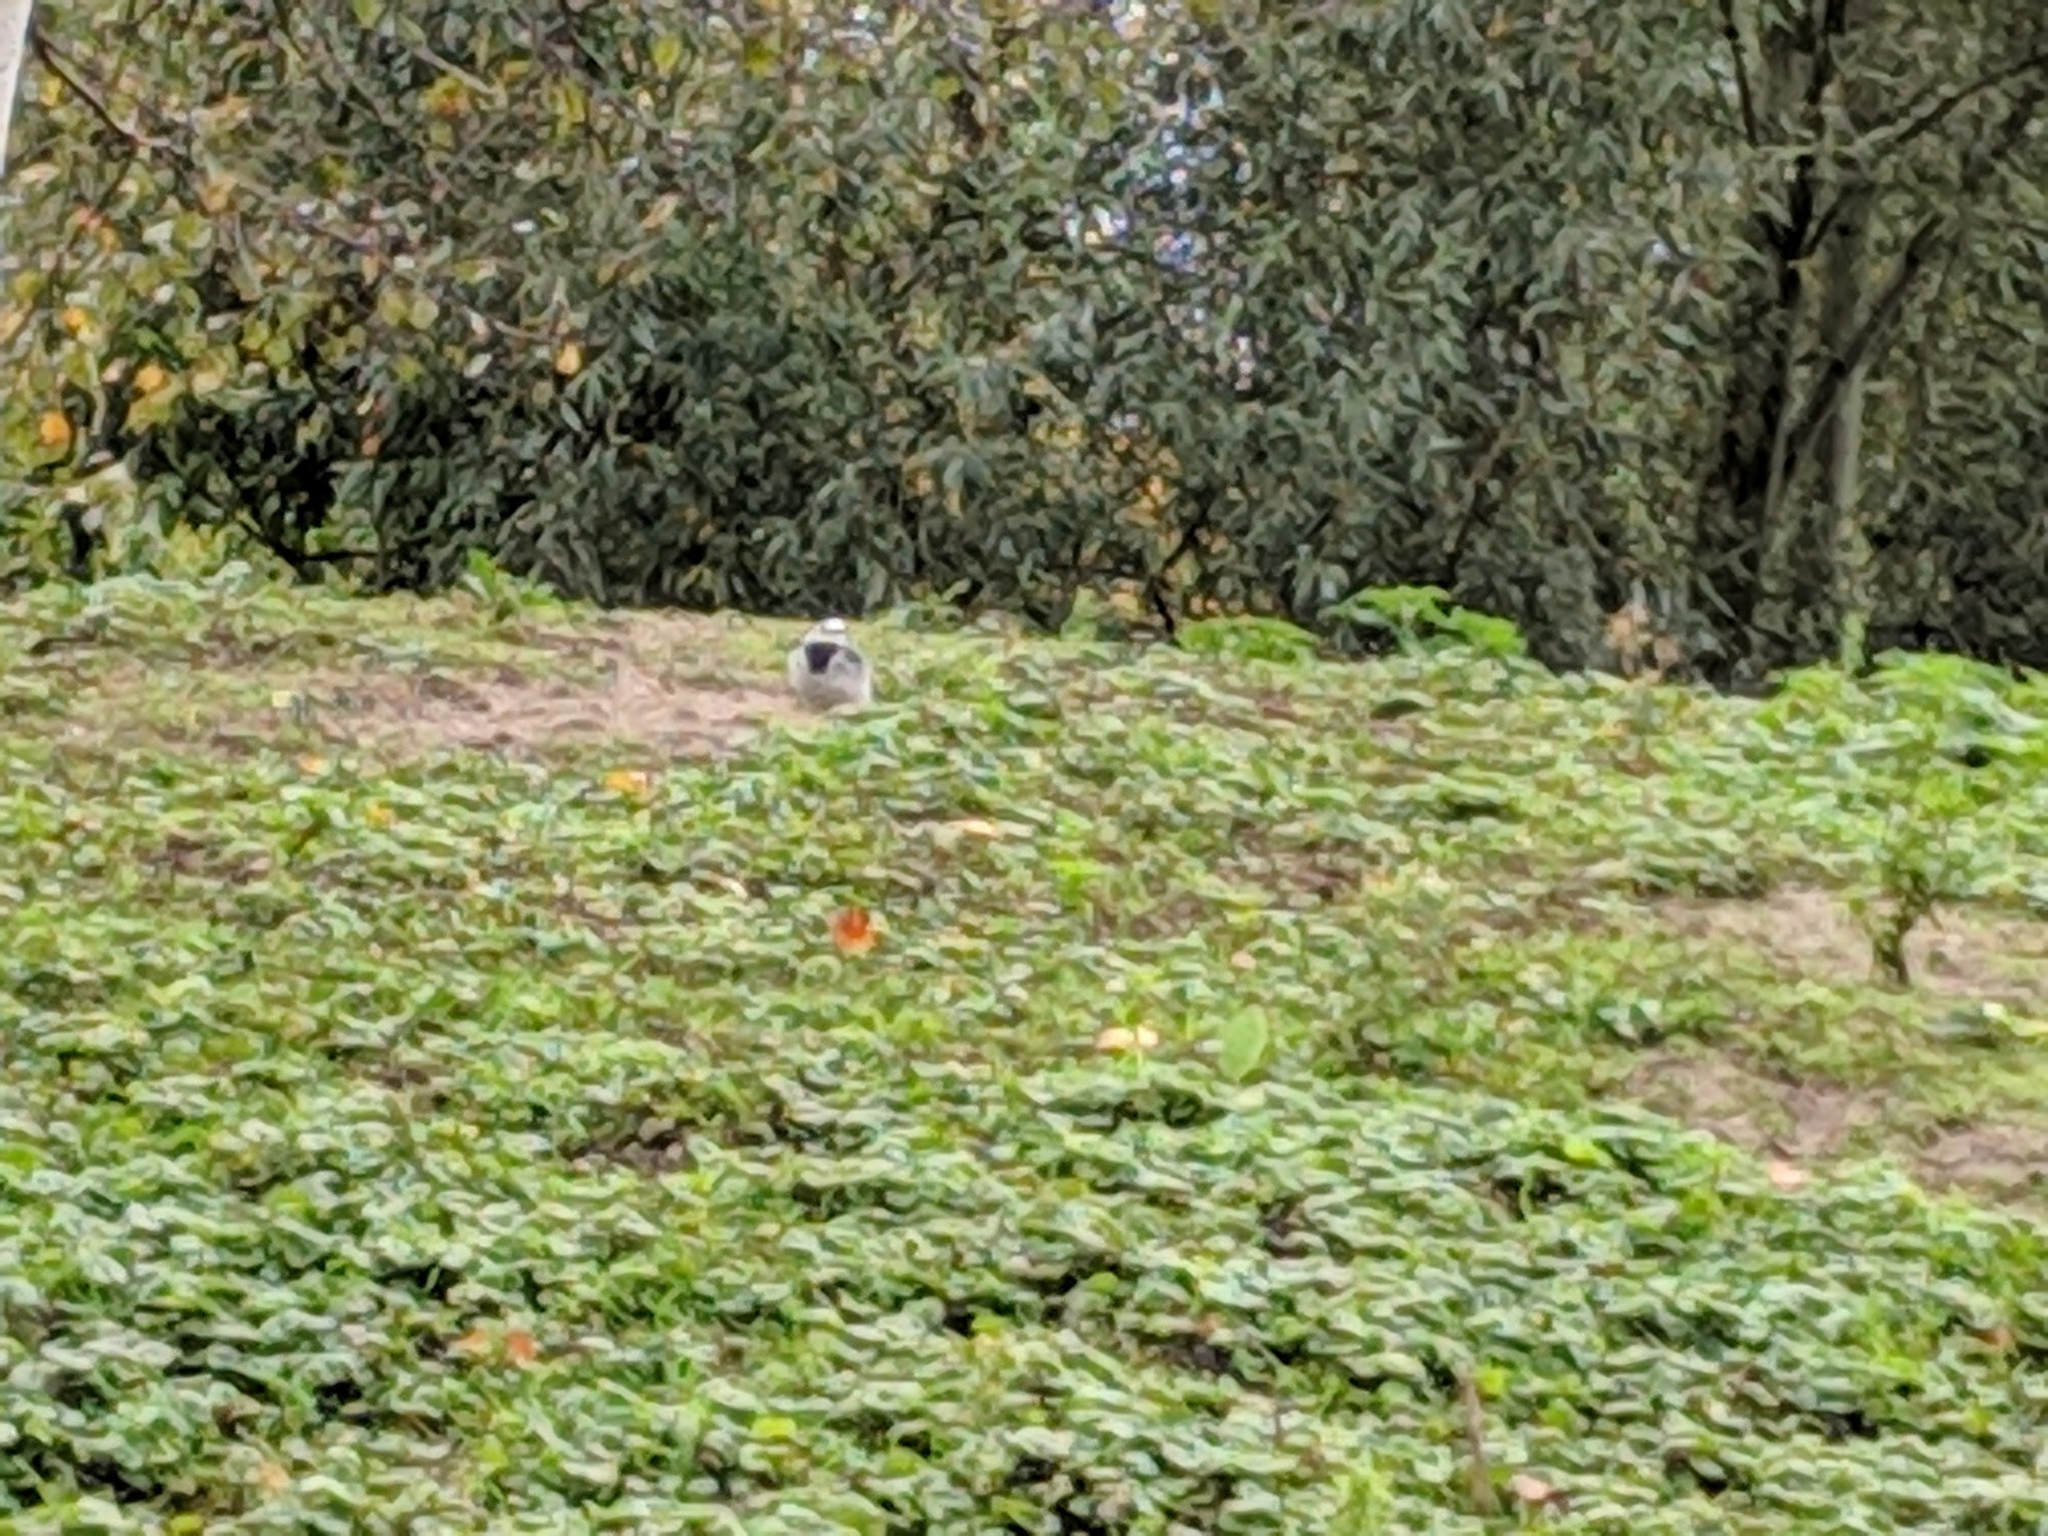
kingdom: Animalia
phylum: Chordata
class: Aves
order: Passeriformes
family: Motacillidae
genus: Motacilla
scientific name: Motacilla alba
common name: White wagtail
